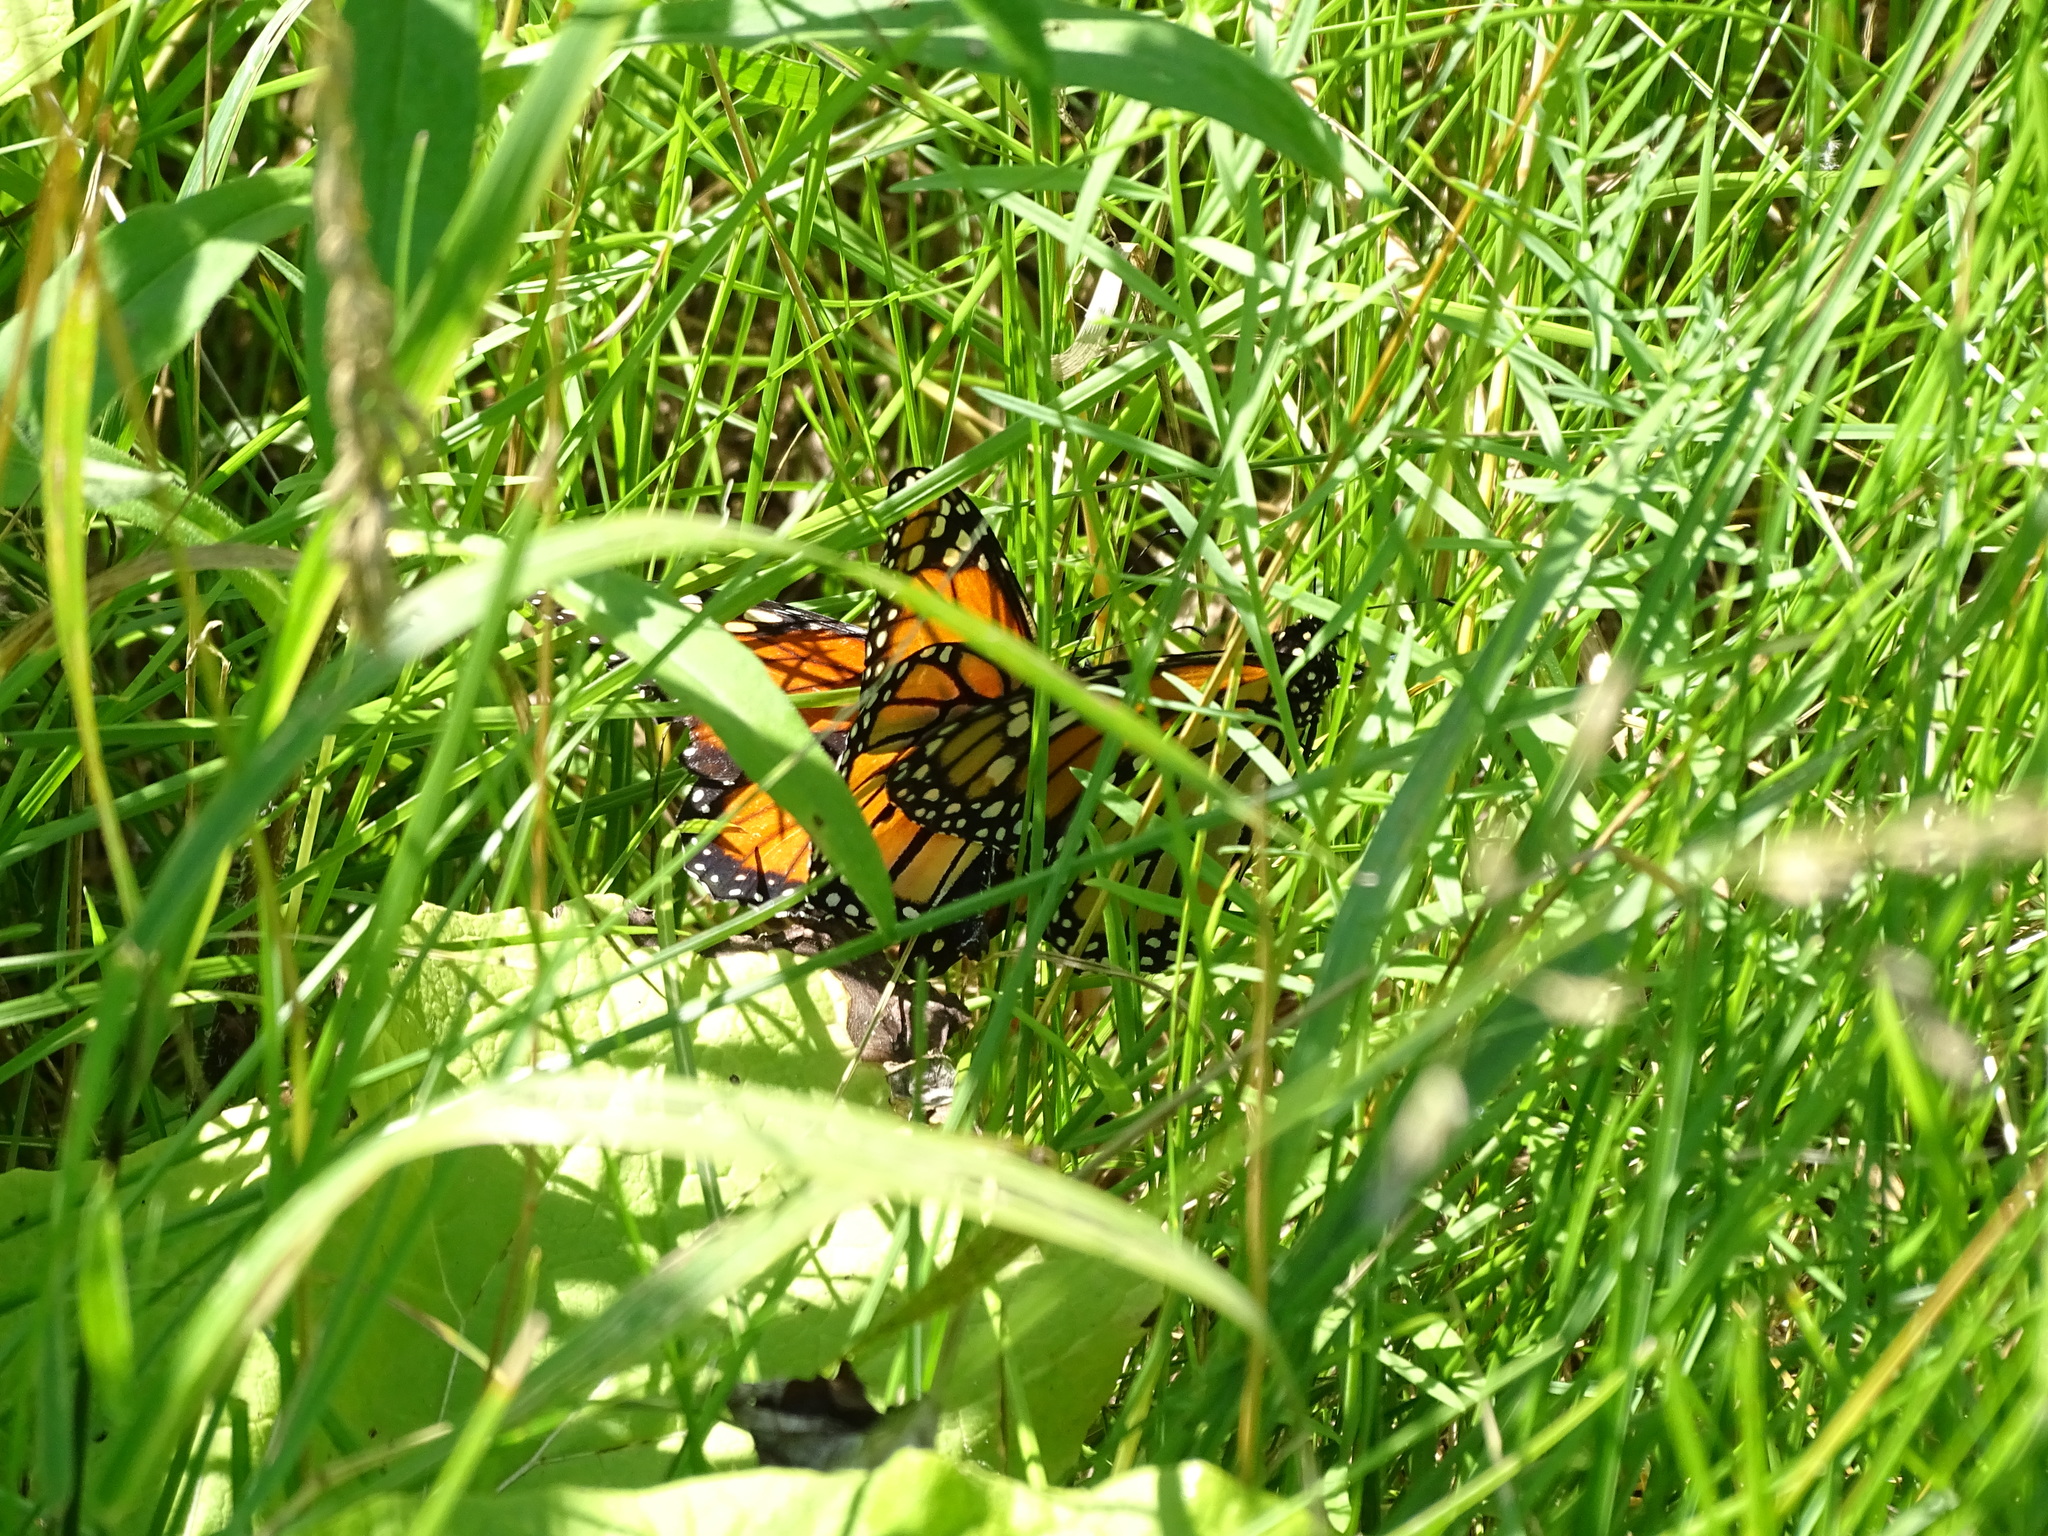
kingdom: Animalia
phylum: Arthropoda
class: Insecta
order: Lepidoptera
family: Nymphalidae
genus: Danaus
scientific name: Danaus plexippus
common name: Monarch
